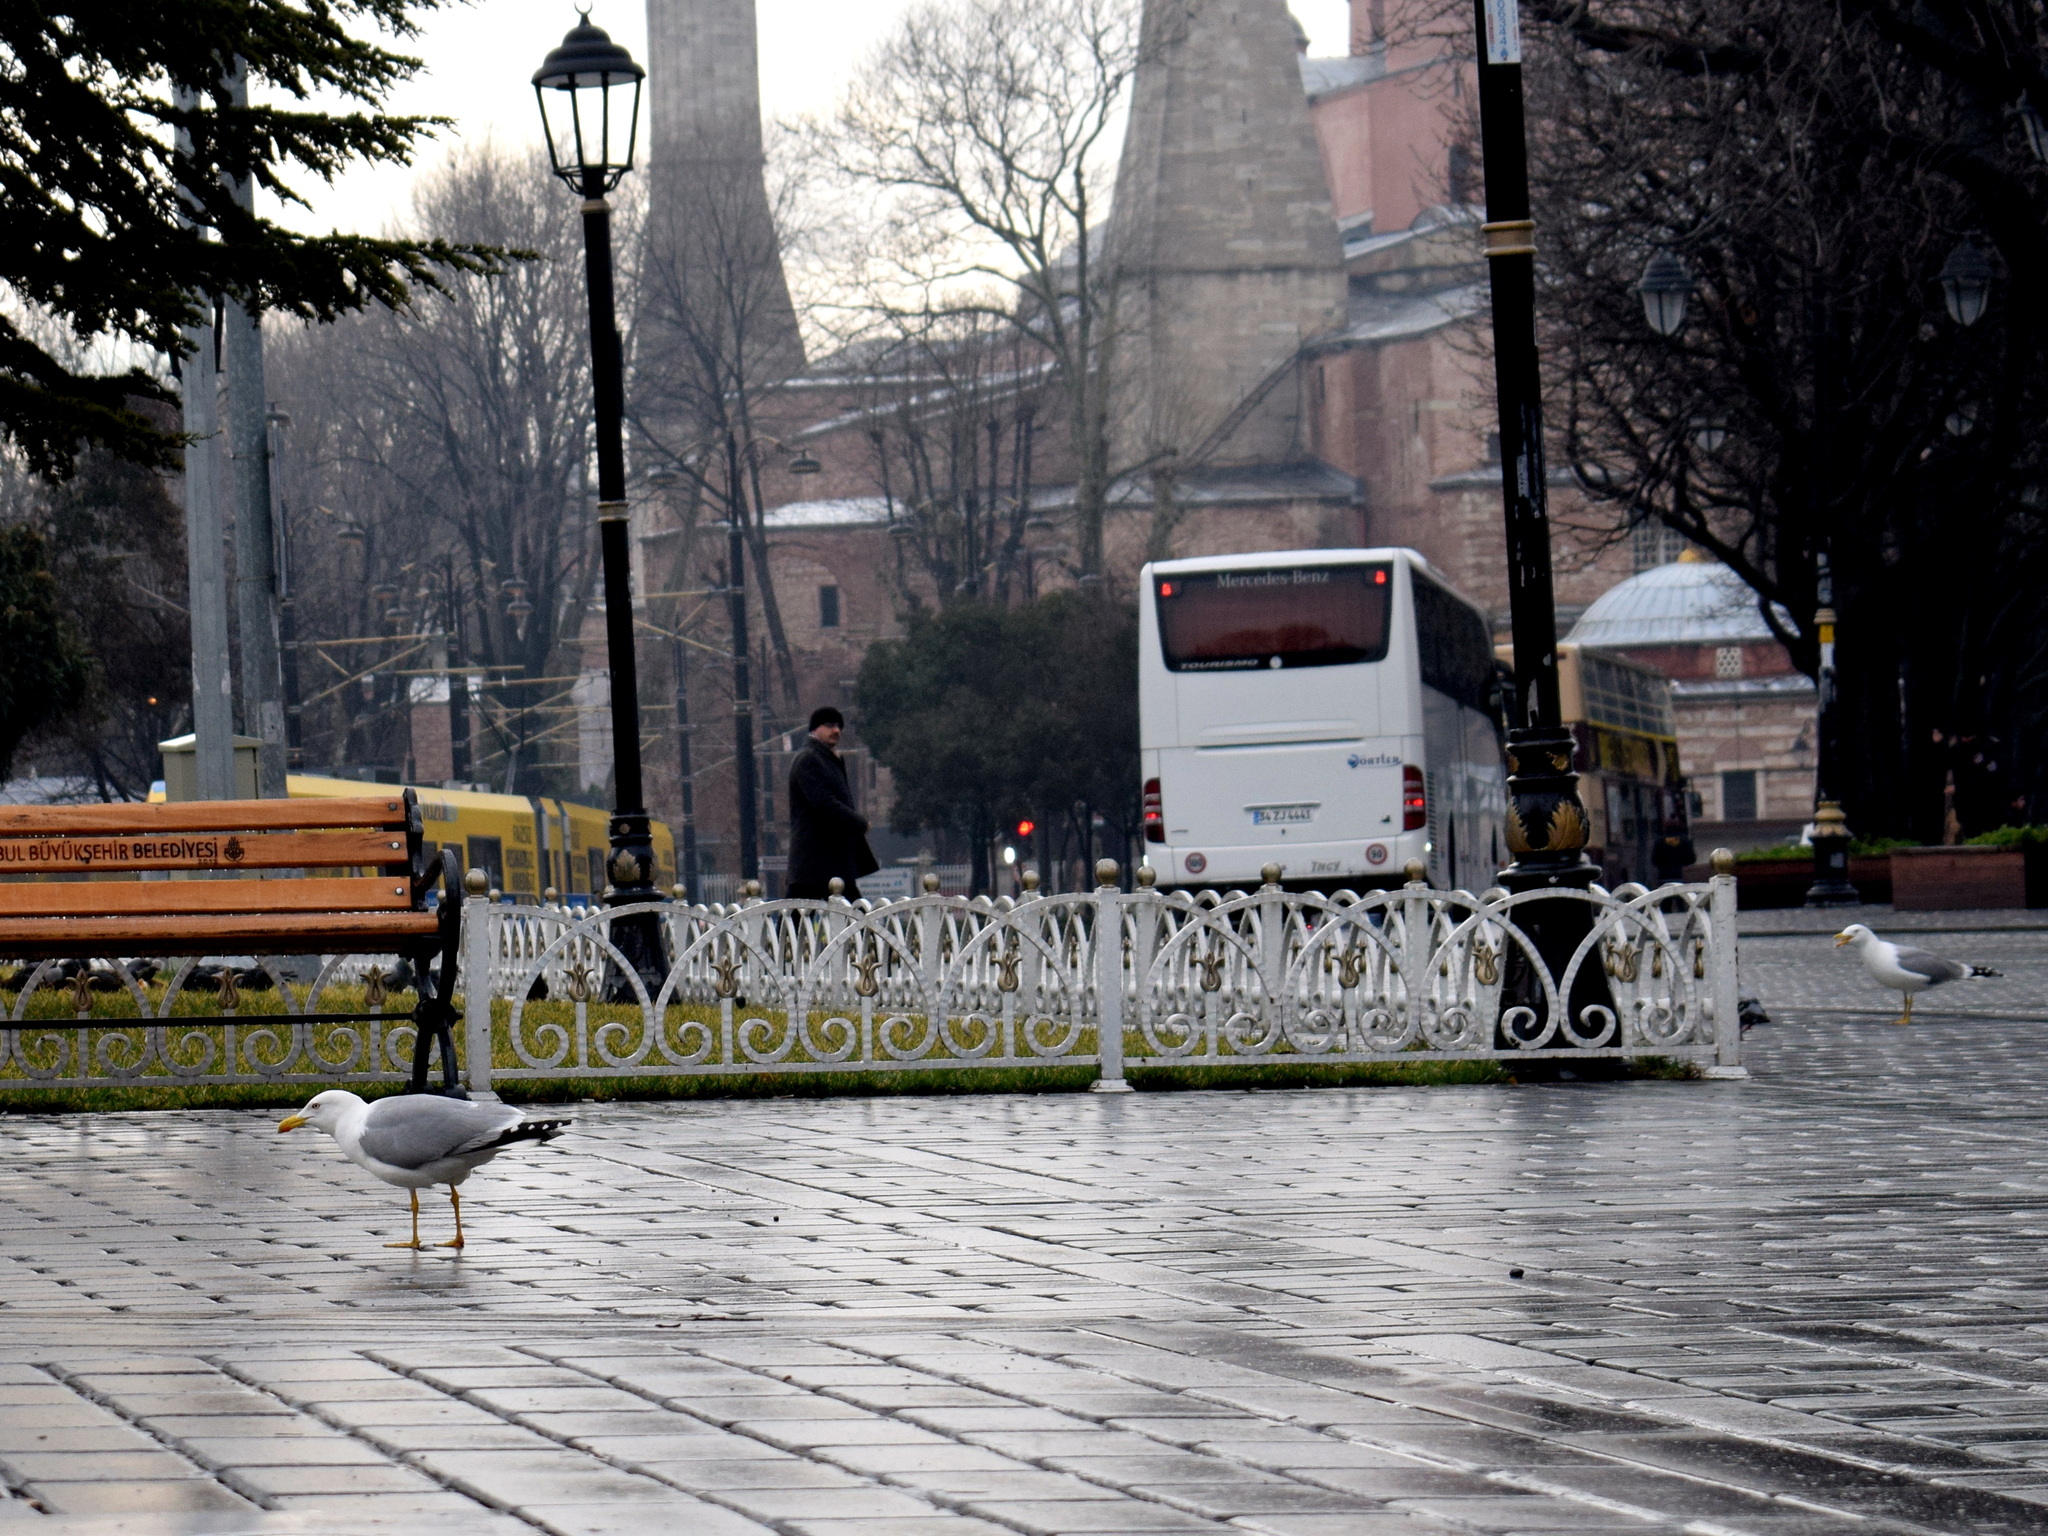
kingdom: Animalia
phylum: Chordata
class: Aves
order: Charadriiformes
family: Laridae
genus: Larus
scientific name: Larus michahellis
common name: Yellow-legged gull
